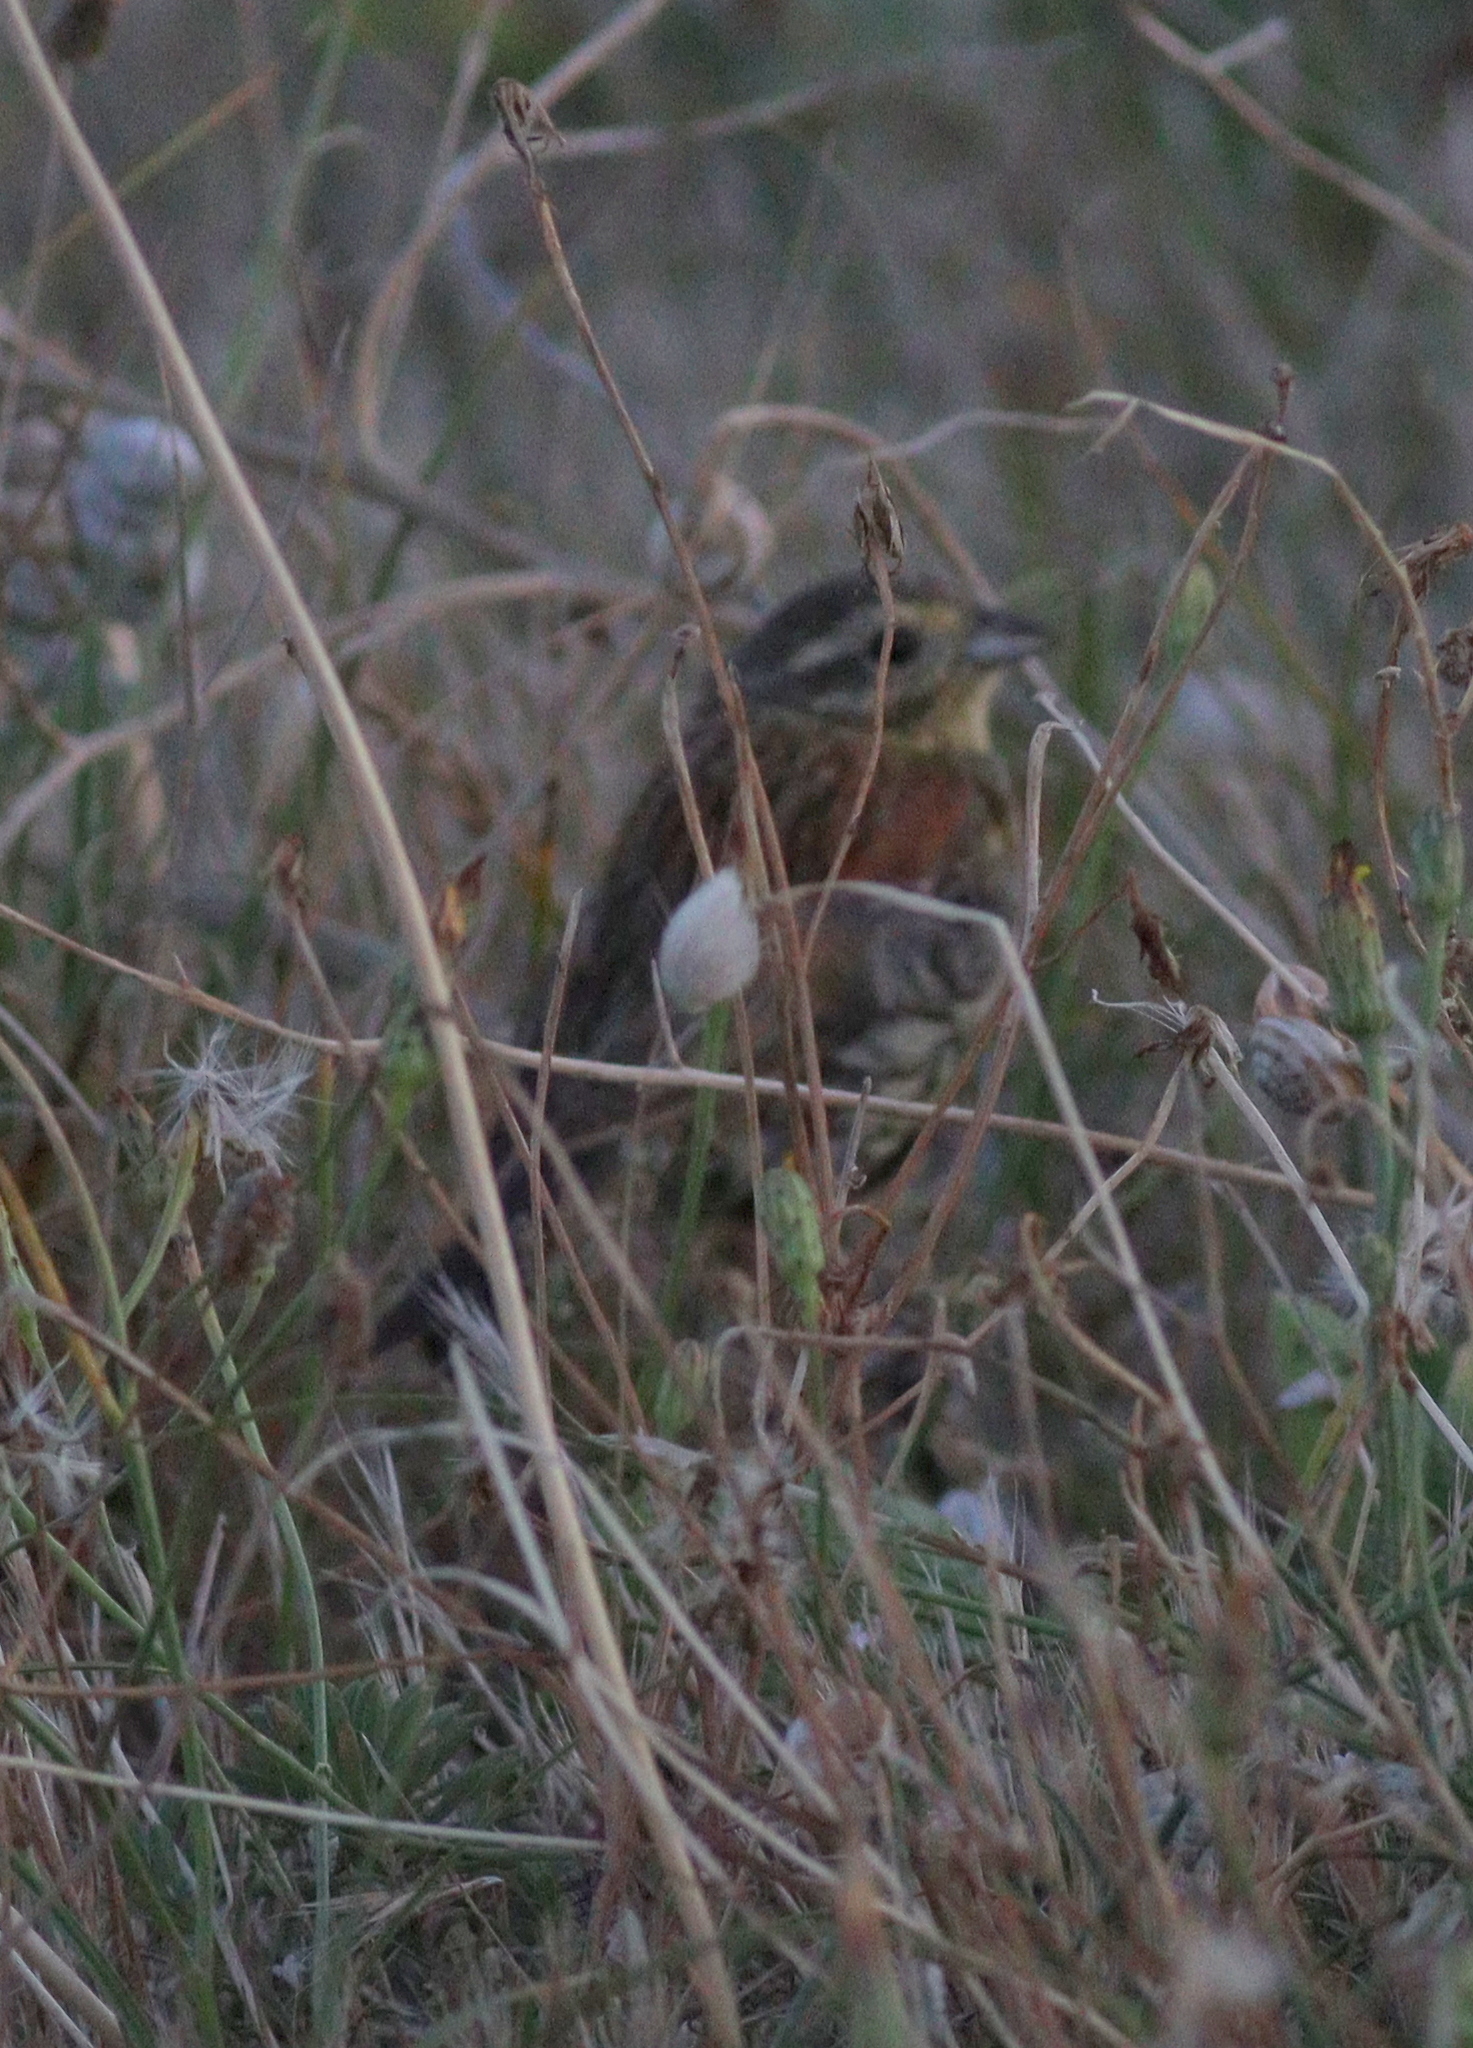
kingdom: Animalia
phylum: Chordata
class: Aves
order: Passeriformes
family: Emberizidae
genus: Emberiza
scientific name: Emberiza cirlus
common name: Cirl bunting
